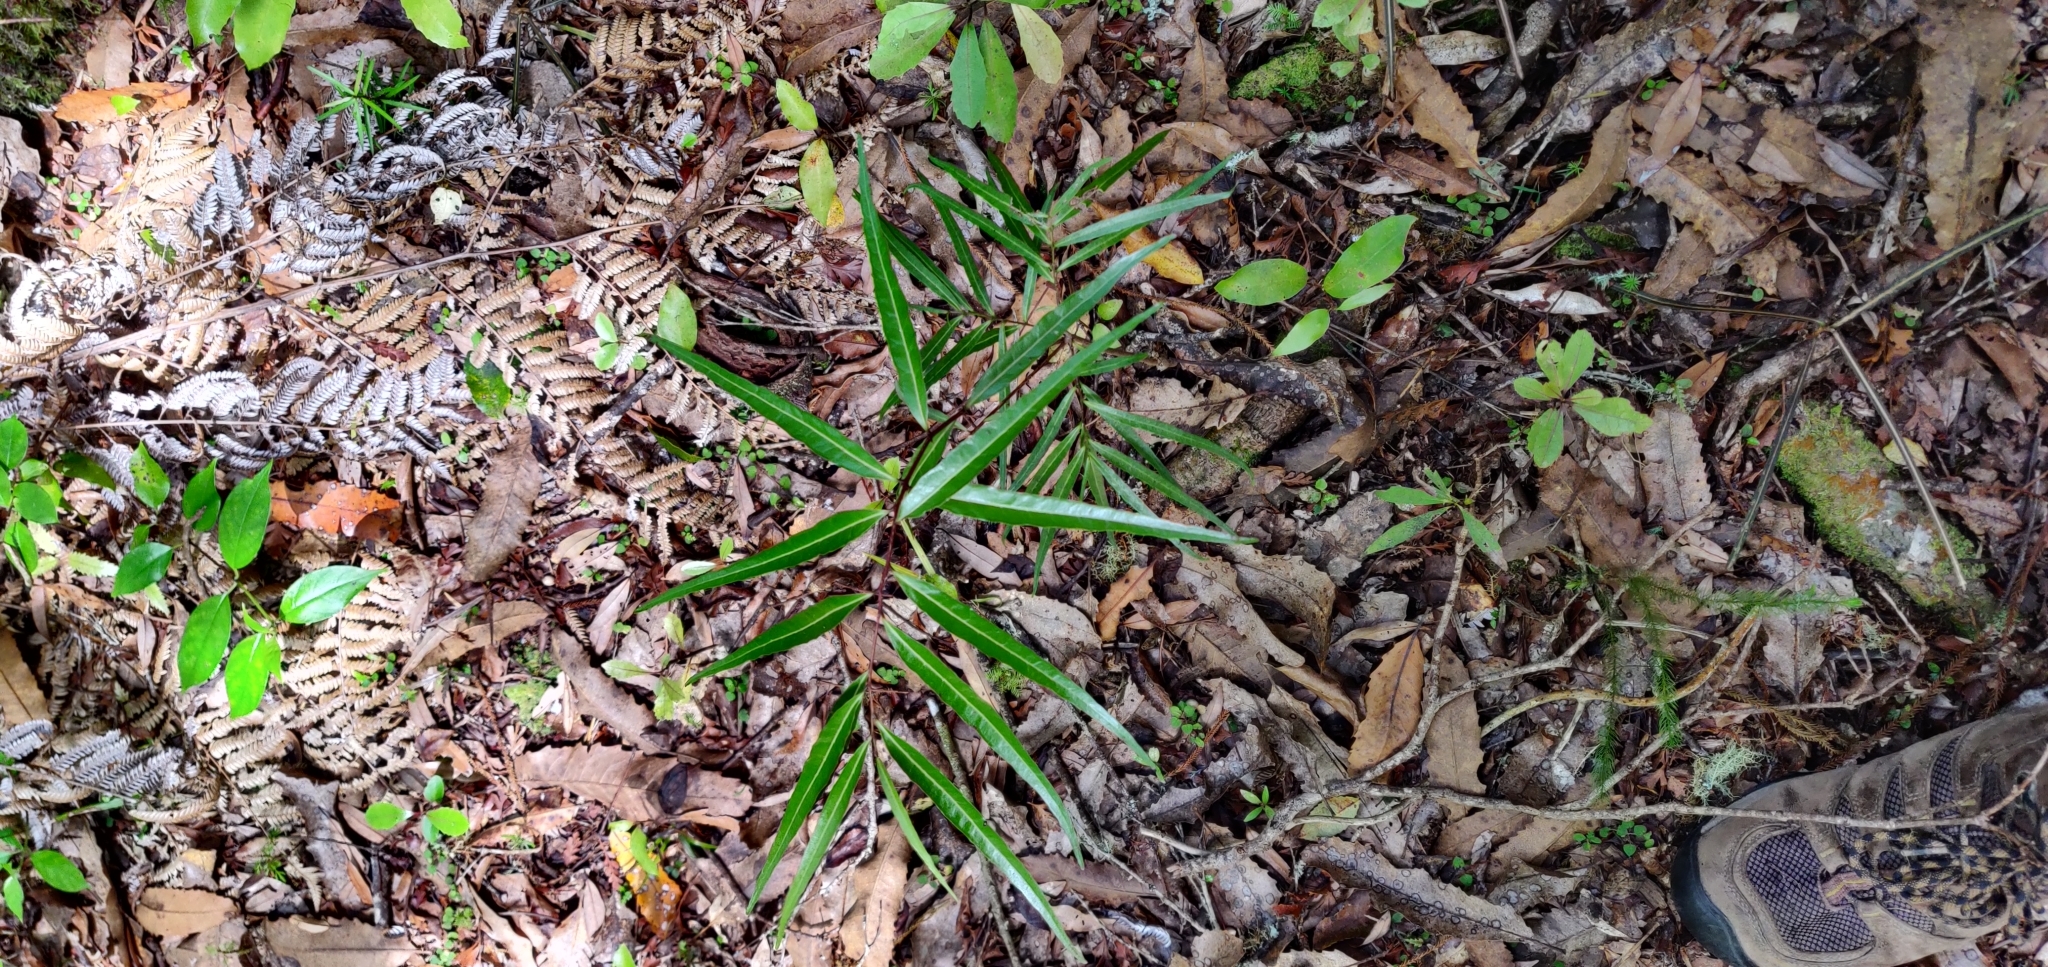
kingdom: Plantae
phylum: Tracheophyta
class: Magnoliopsida
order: Santalales
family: Nanodeaceae
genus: Mida
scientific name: Mida salicifolia
